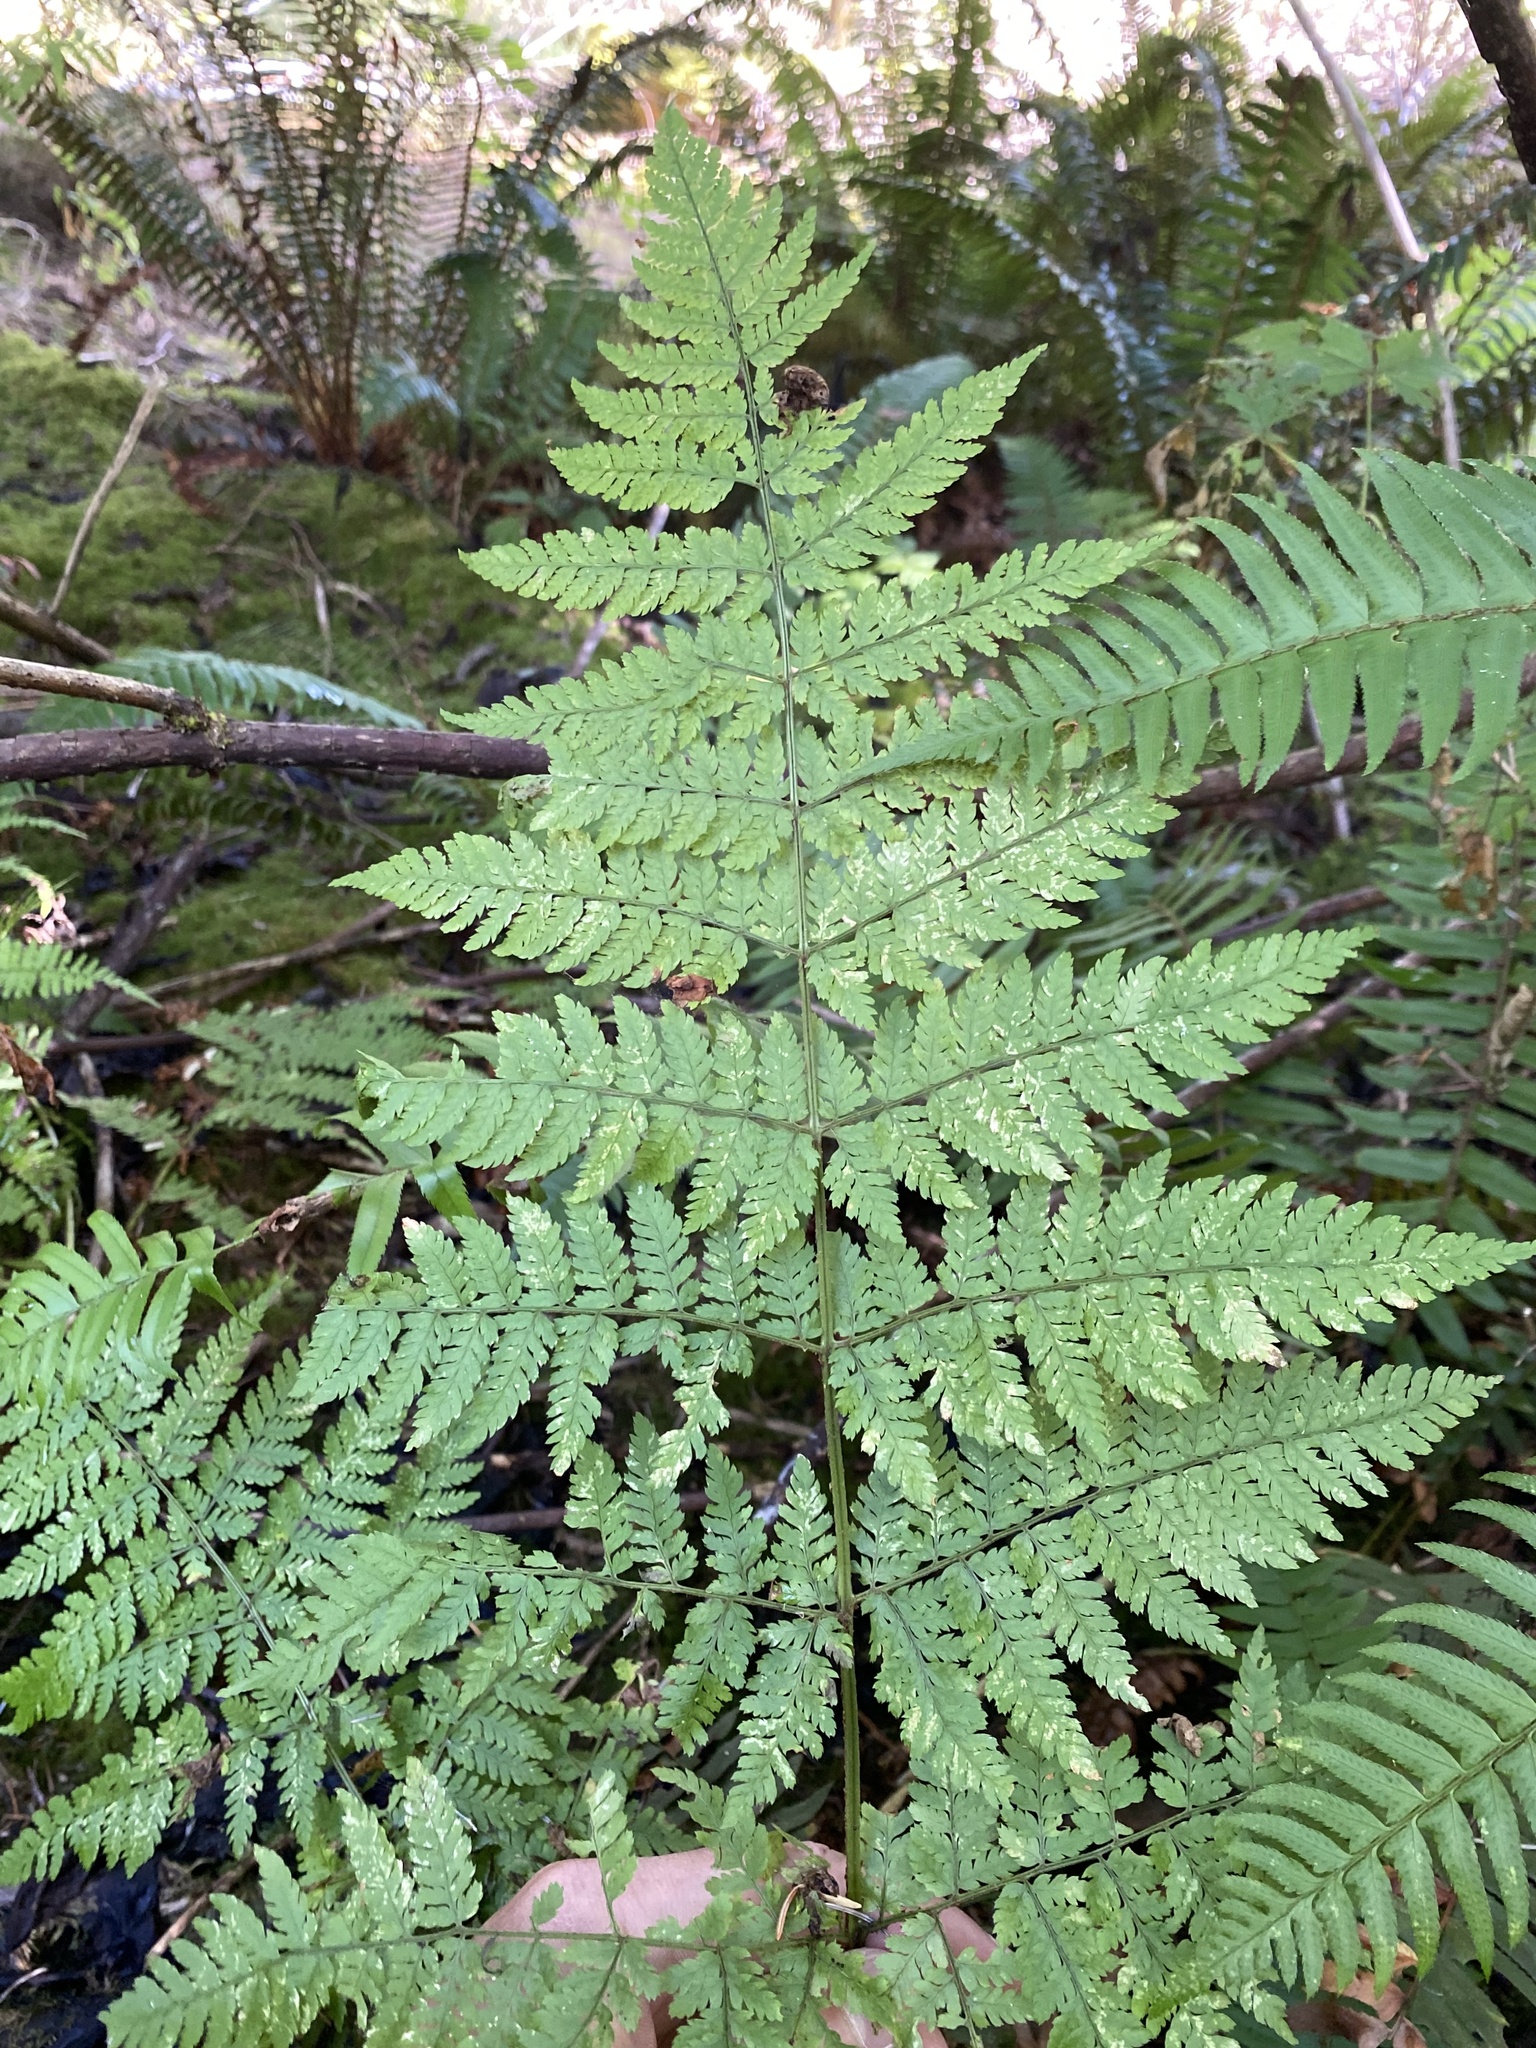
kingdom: Plantae
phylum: Tracheophyta
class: Polypodiopsida
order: Polypodiales
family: Dryopteridaceae
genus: Dryopteris
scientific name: Dryopteris expansa
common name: Northern buckler fern
